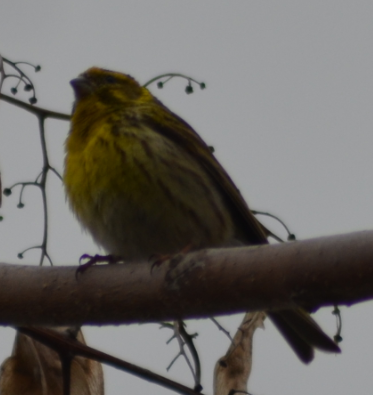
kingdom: Animalia
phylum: Chordata
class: Aves
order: Passeriformes
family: Fringillidae
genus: Serinus
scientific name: Serinus serinus
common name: European serin
